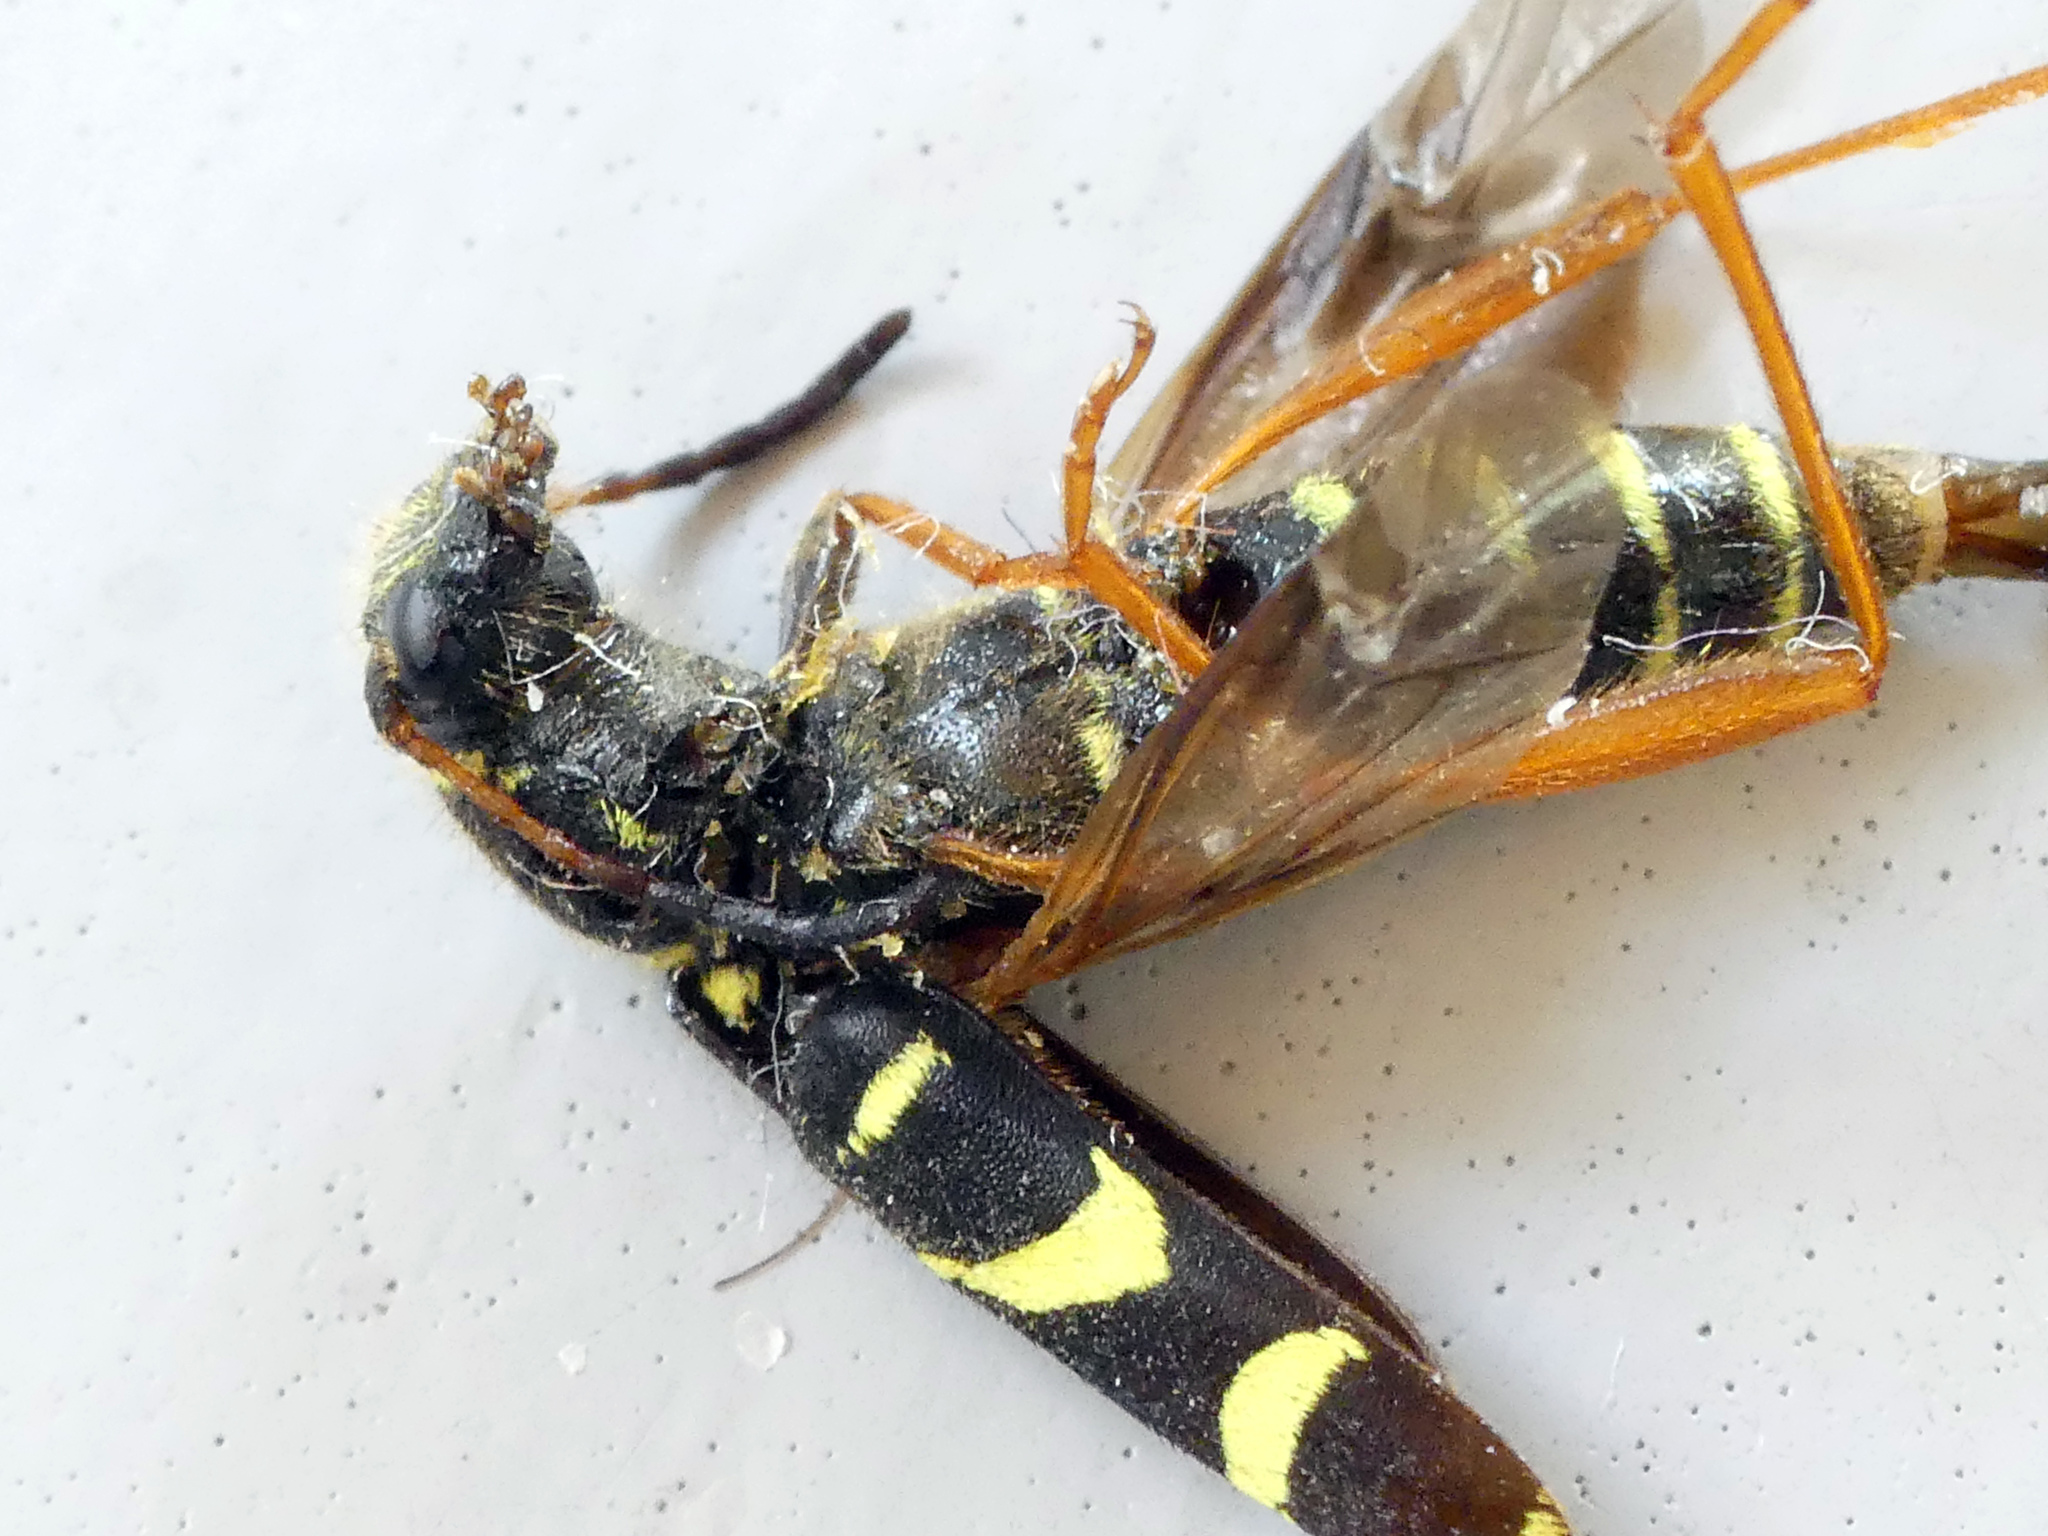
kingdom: Animalia
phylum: Arthropoda
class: Insecta
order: Coleoptera
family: Cerambycidae
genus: Clytus
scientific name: Clytus arietis
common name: Wasp beetle
